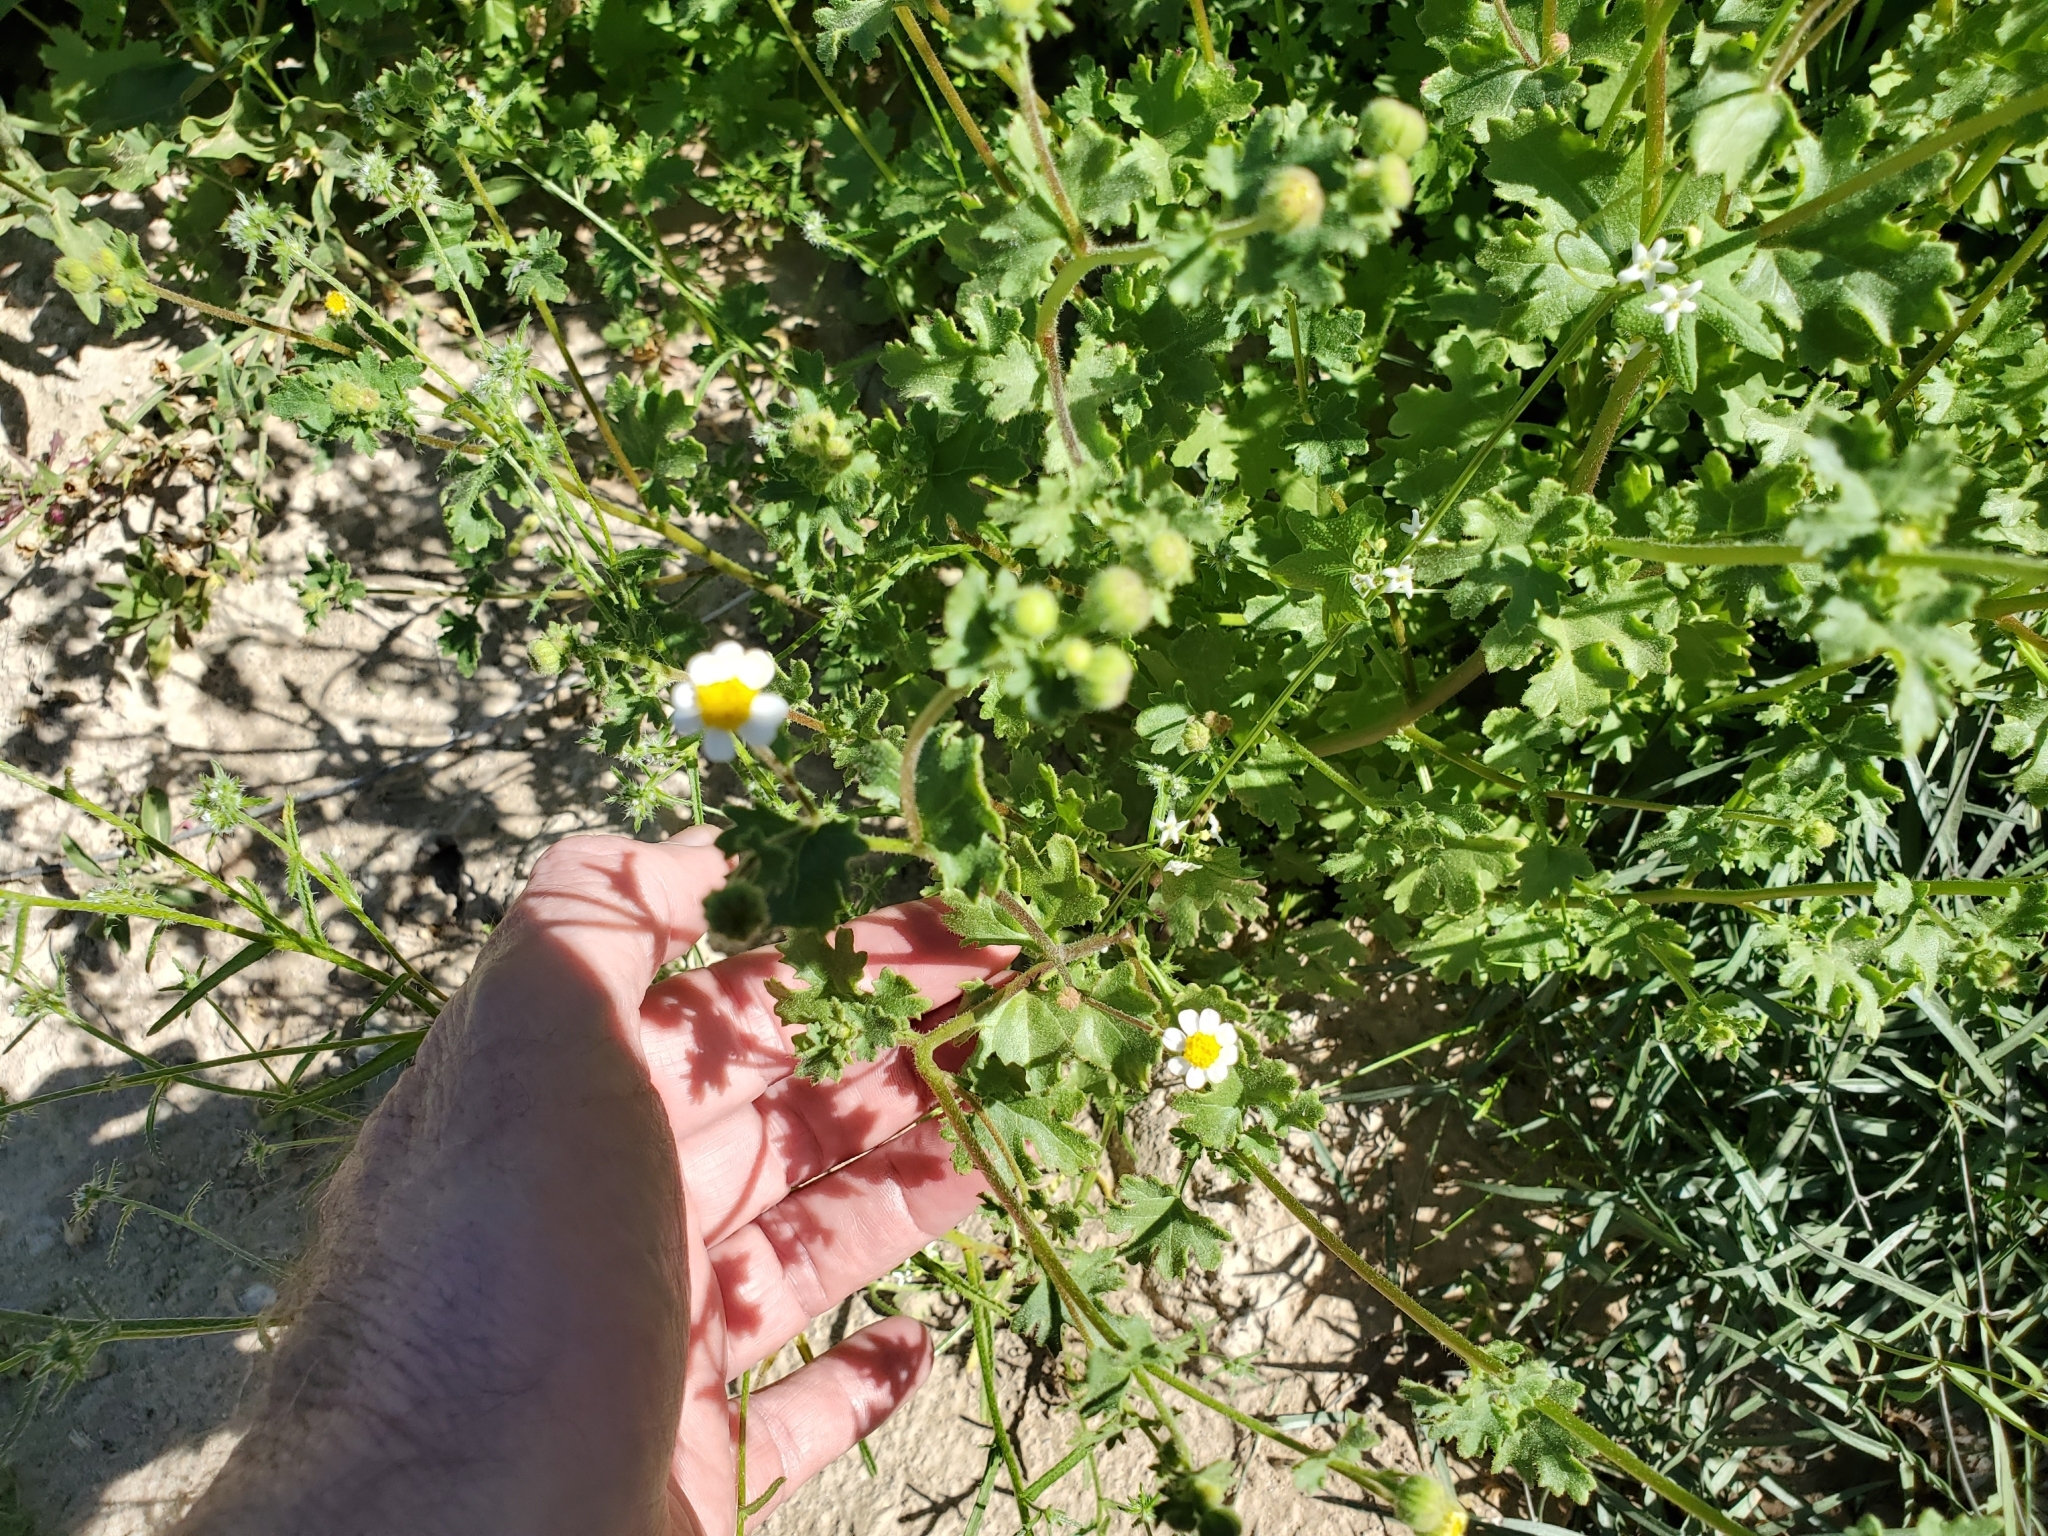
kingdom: Plantae
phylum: Tracheophyta
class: Magnoliopsida
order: Asterales
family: Asteraceae
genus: Laphamia
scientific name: Laphamia emoryi
